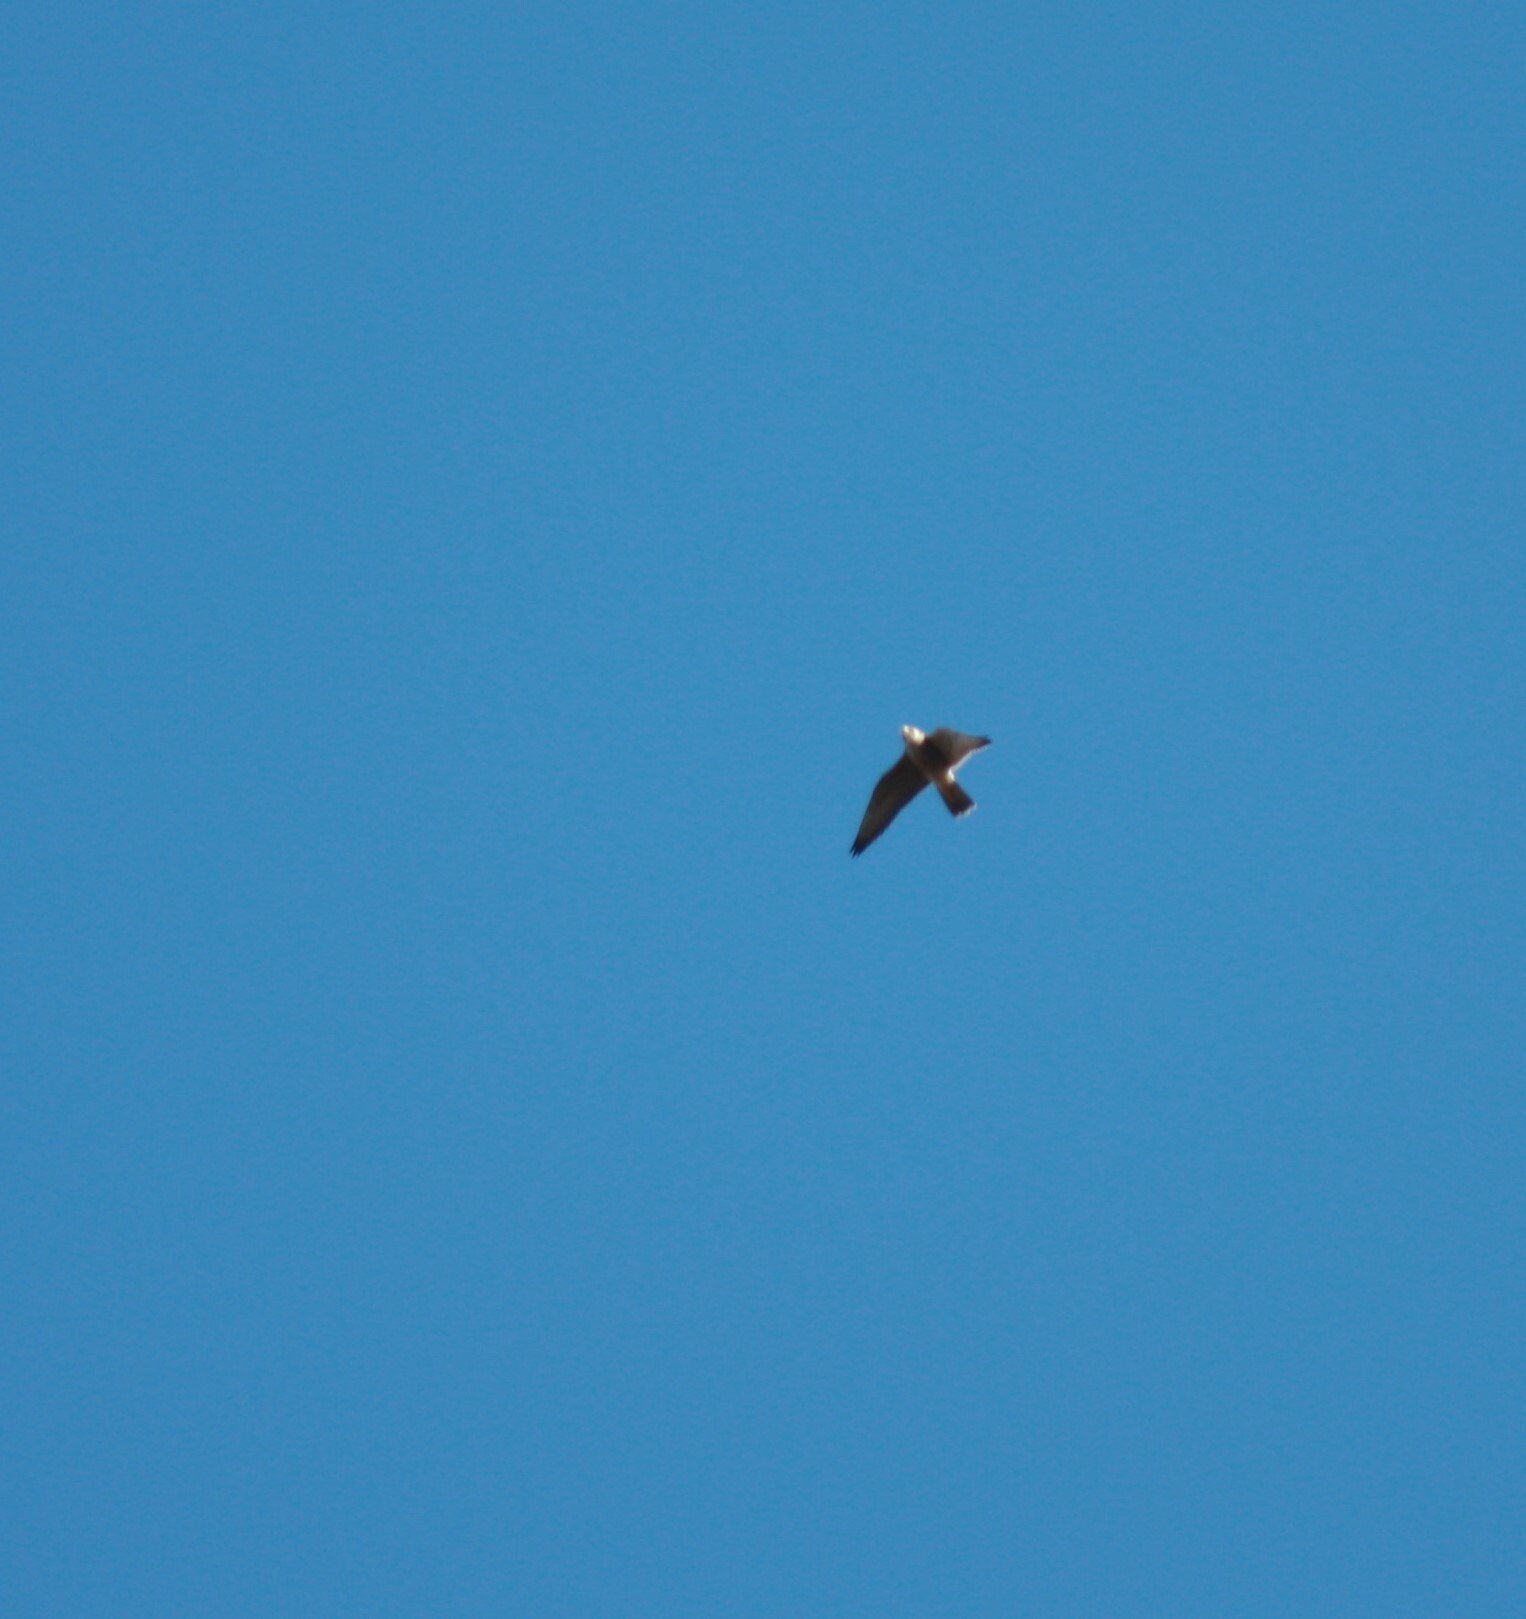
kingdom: Animalia
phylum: Chordata
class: Aves
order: Falconiformes
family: Falconidae
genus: Falco
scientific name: Falco peregrinus
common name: Peregrine falcon
